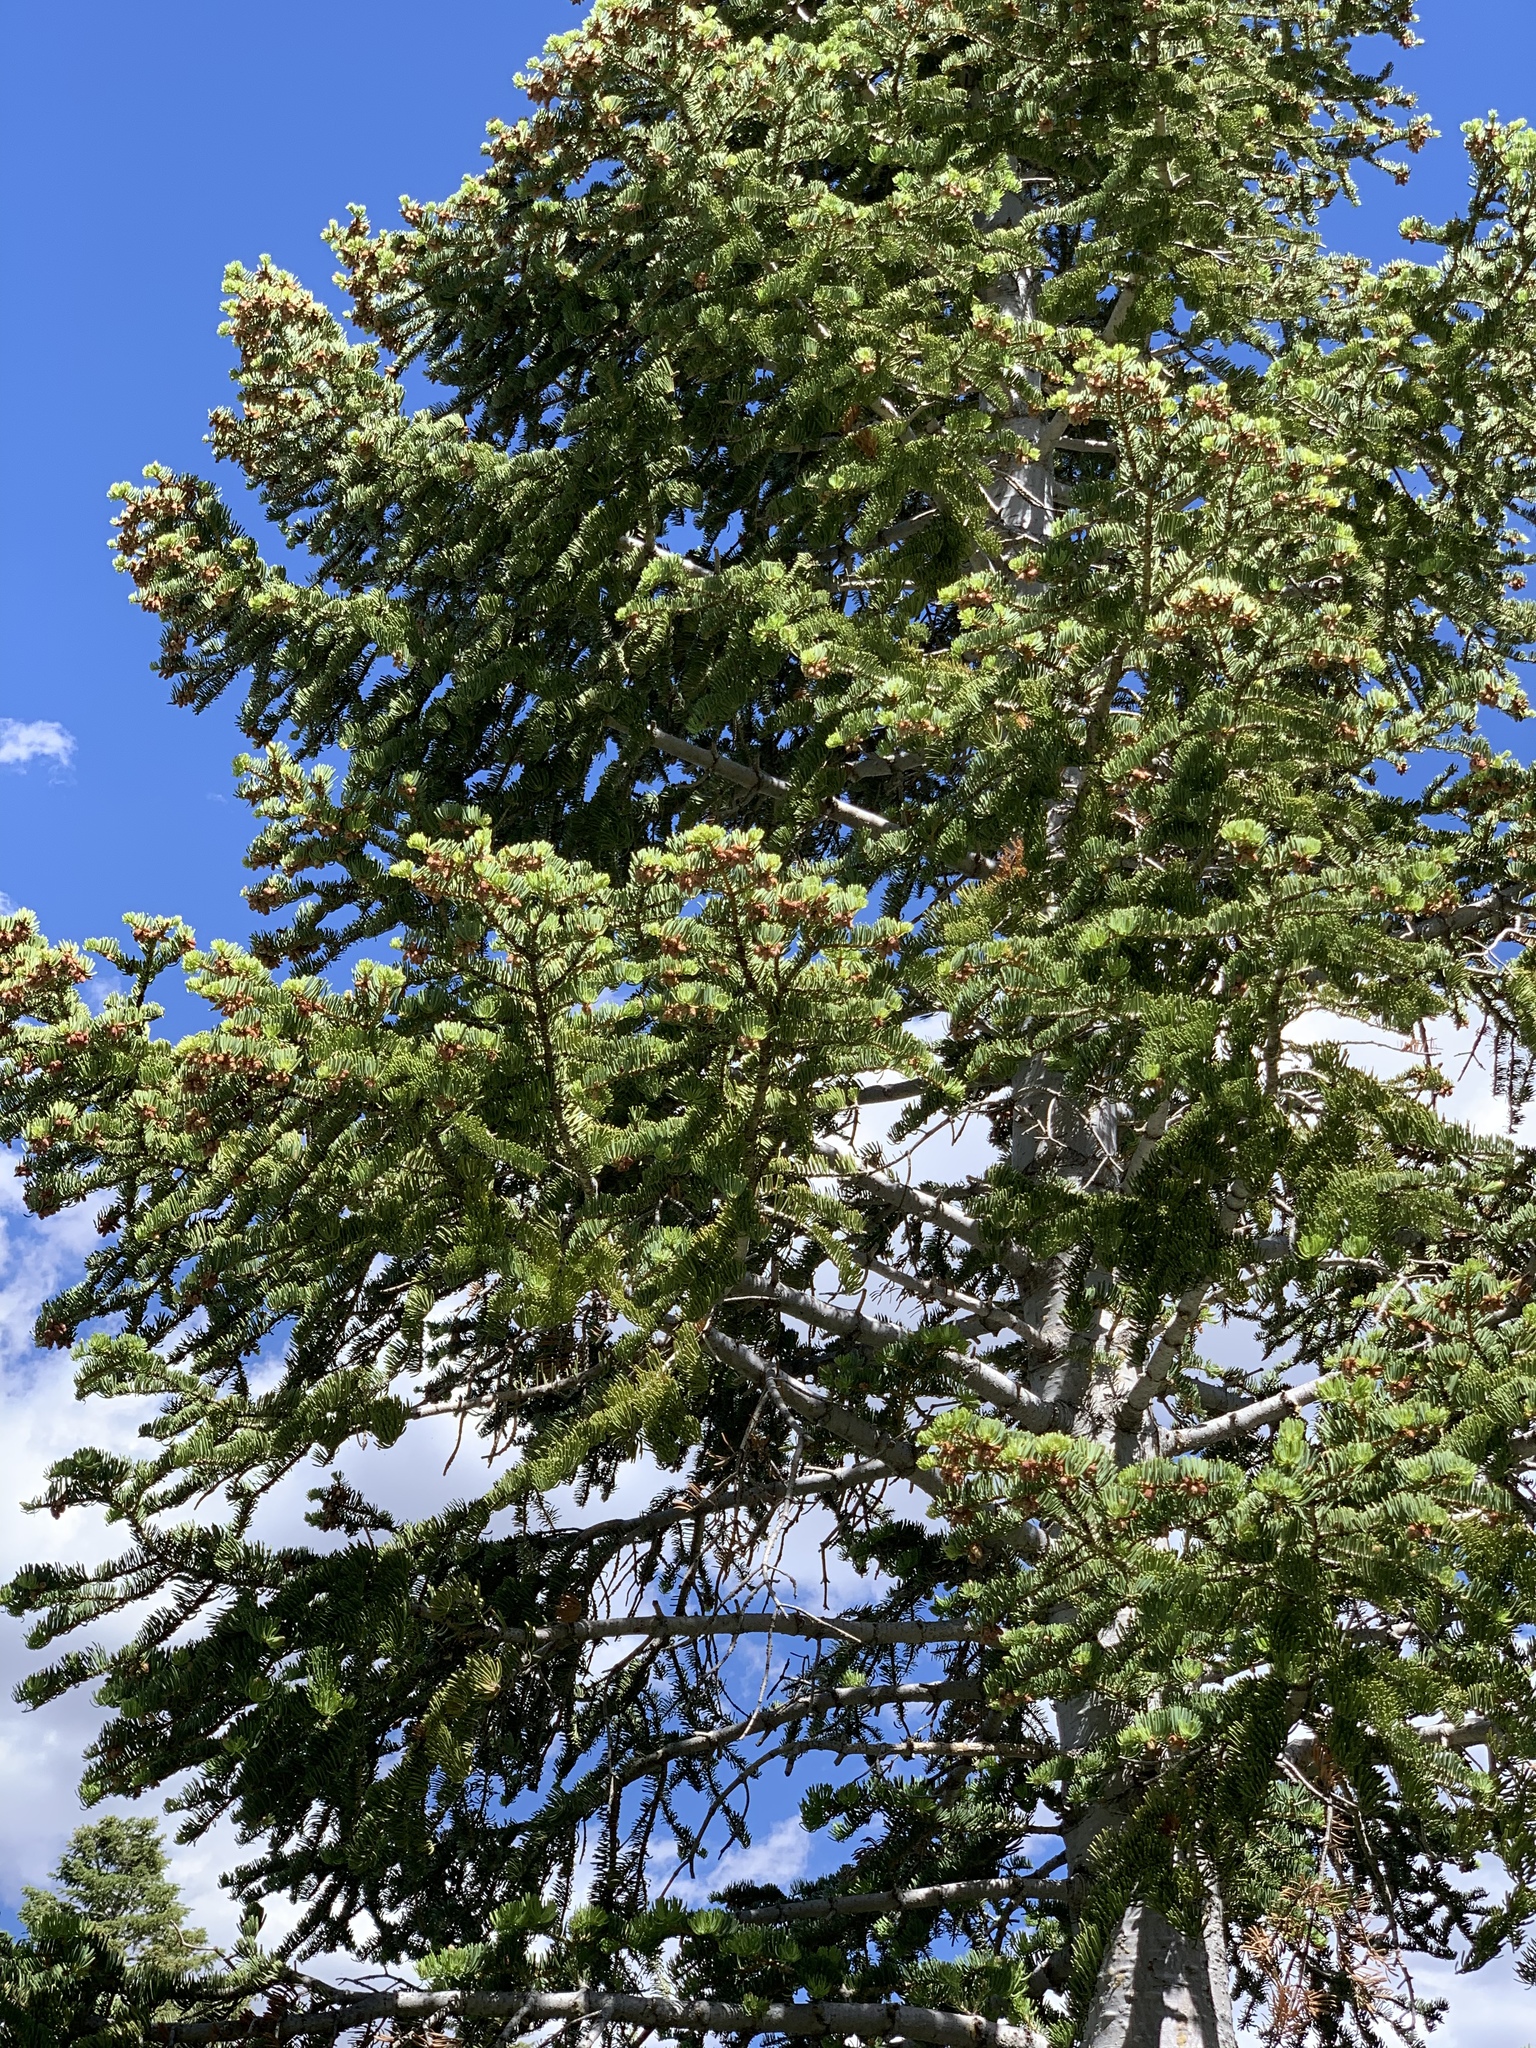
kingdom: Plantae
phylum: Tracheophyta
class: Pinopsida
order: Pinales
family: Pinaceae
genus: Abies
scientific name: Abies concolor
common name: Colorado fir
